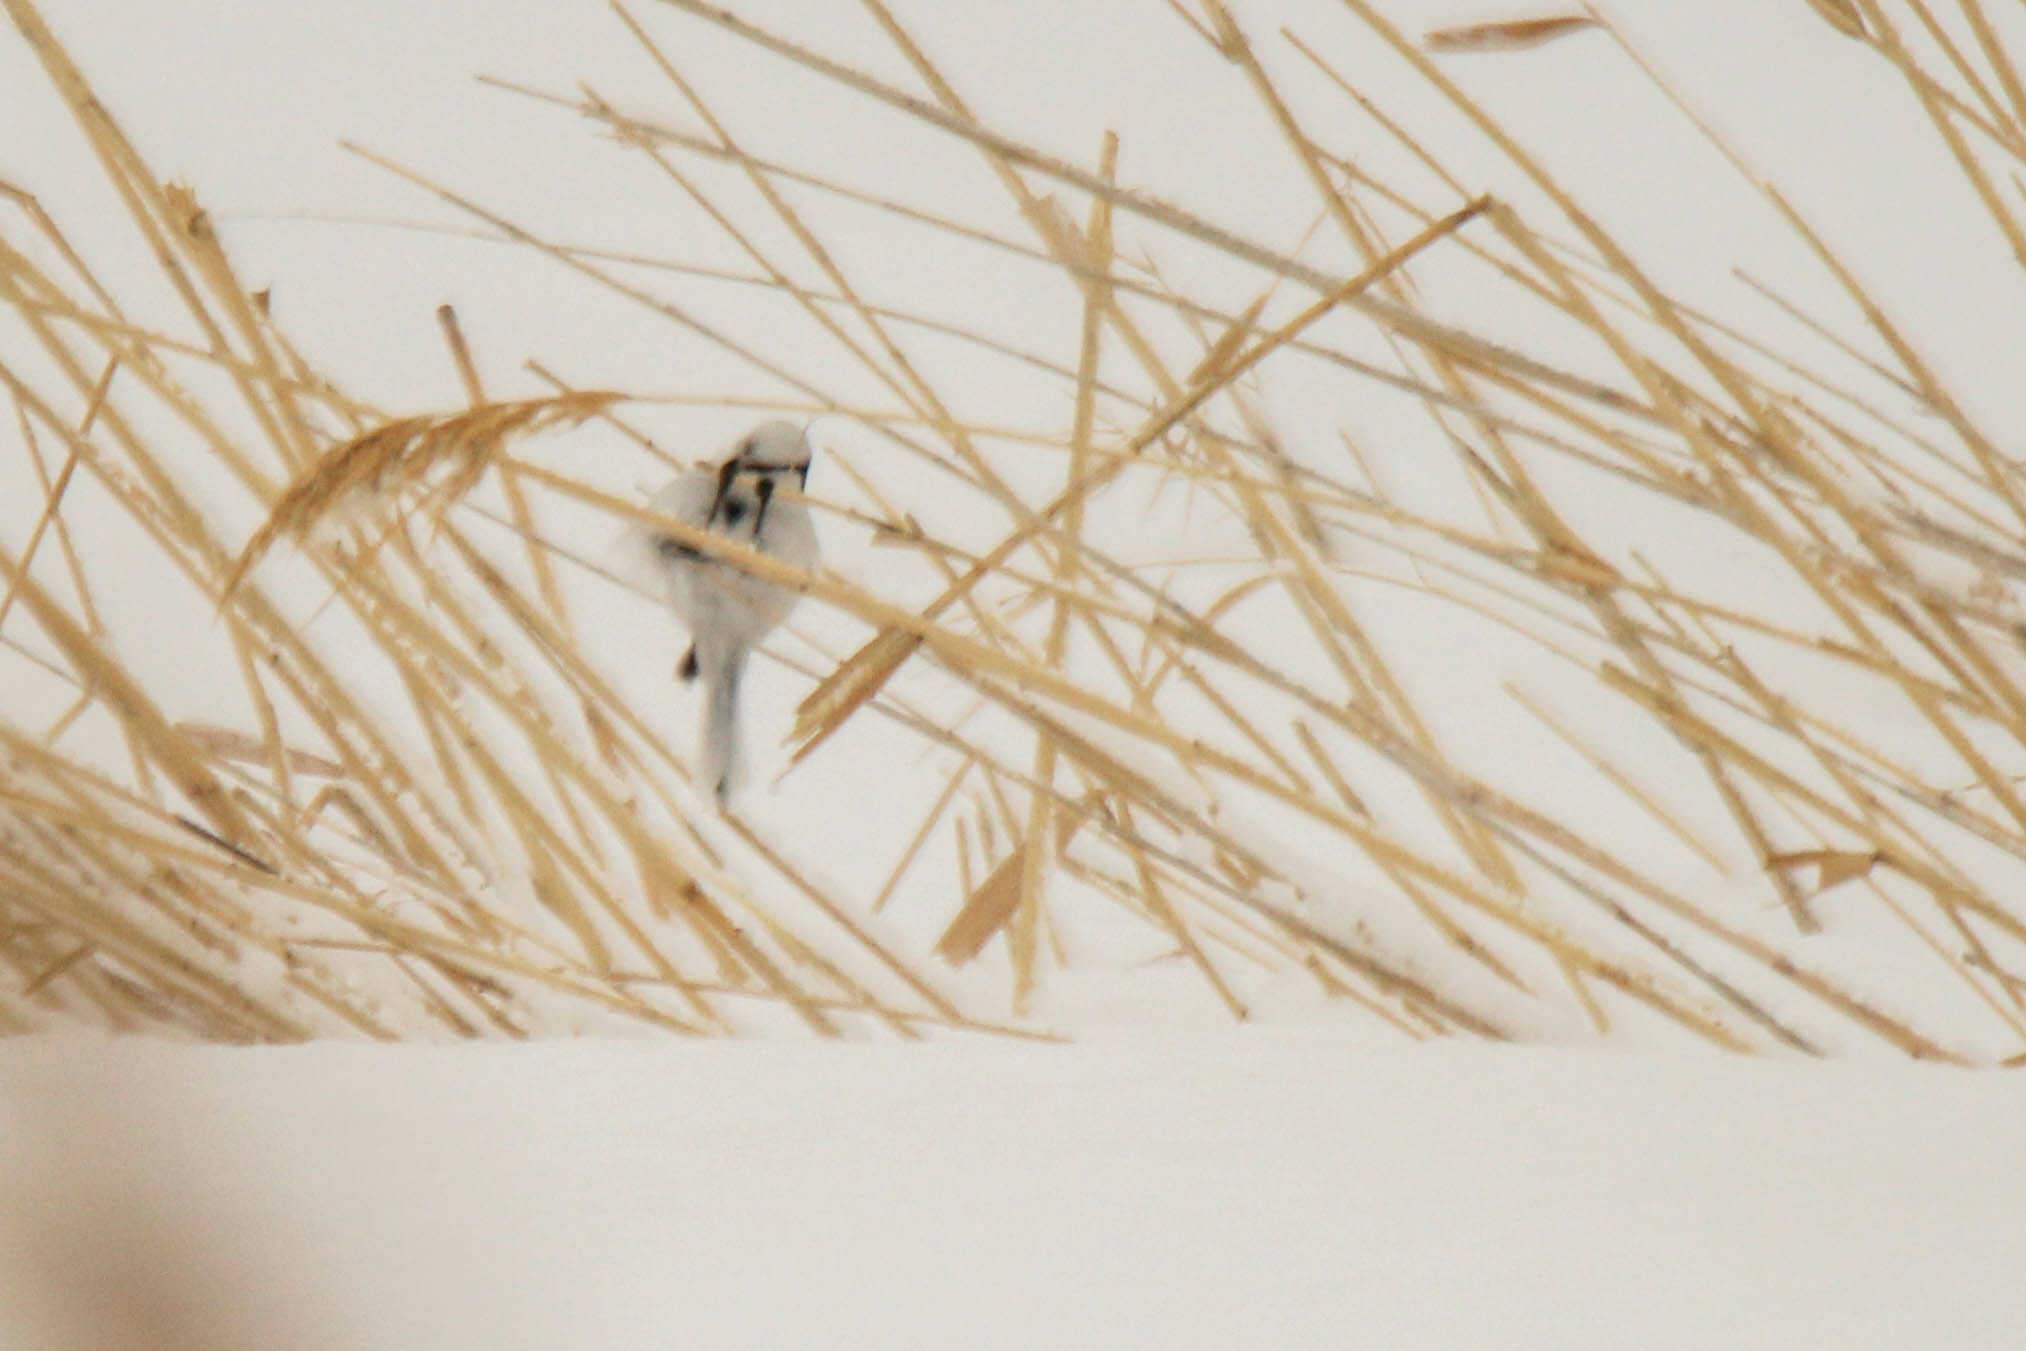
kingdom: Animalia
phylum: Chordata
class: Aves
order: Passeriformes
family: Paridae
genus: Cyanistes
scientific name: Cyanistes cyanus
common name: Azure tit
